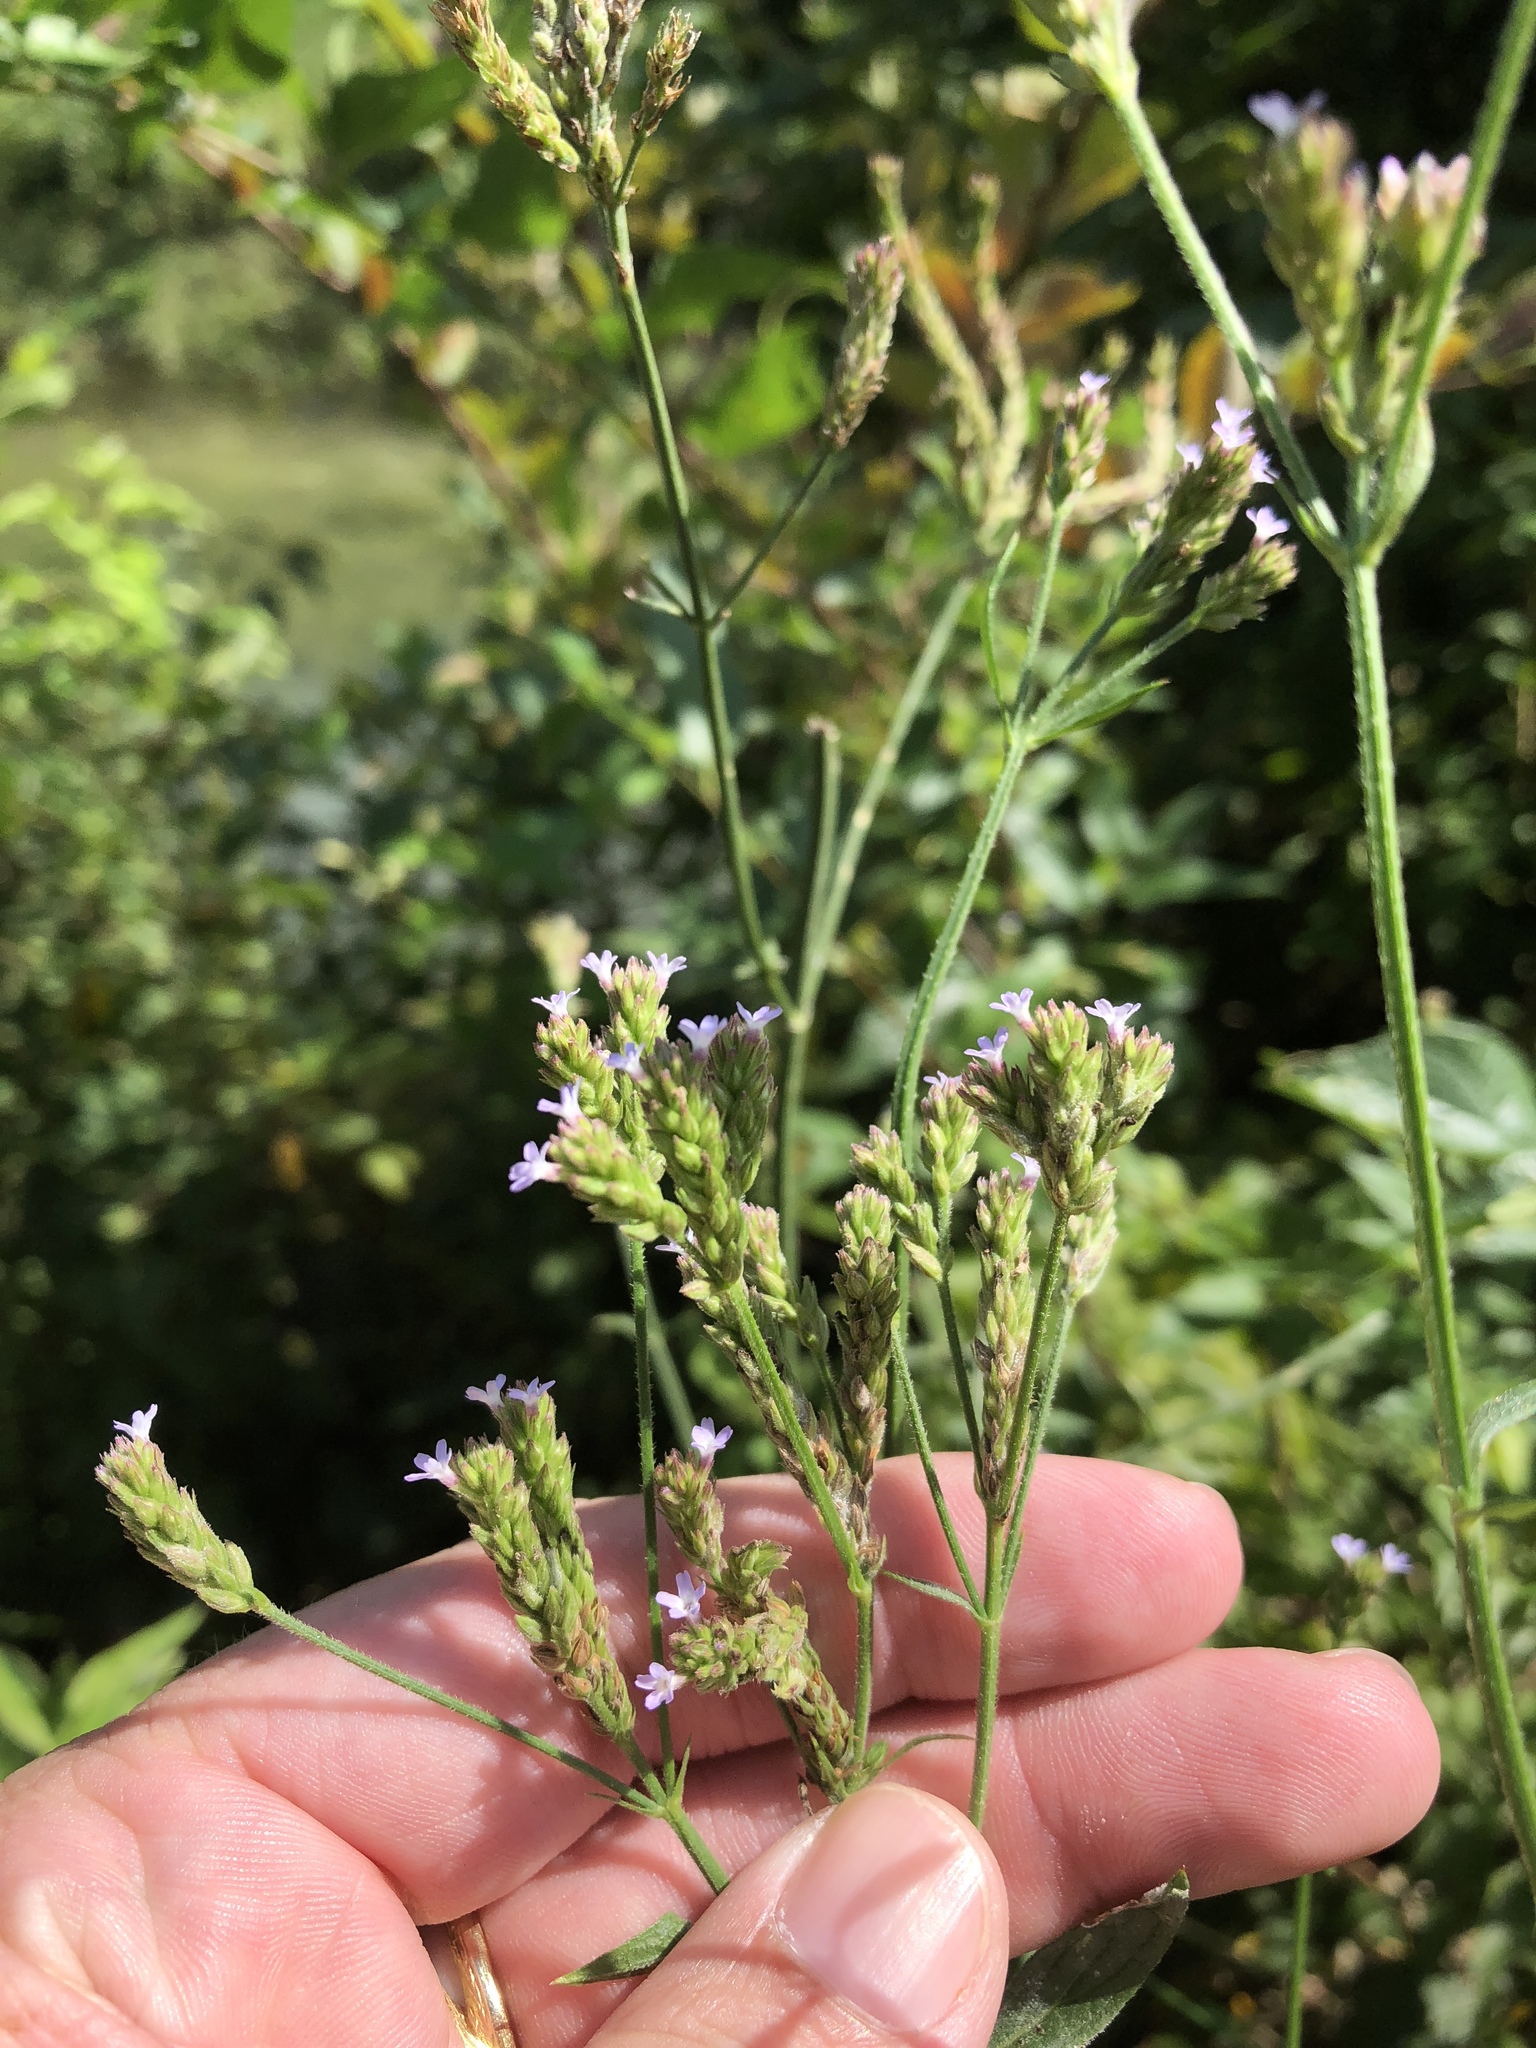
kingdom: Plantae
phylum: Tracheophyta
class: Magnoliopsida
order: Lamiales
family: Verbenaceae
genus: Verbena
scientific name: Verbena brasiliensis
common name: Brazilian vervain
